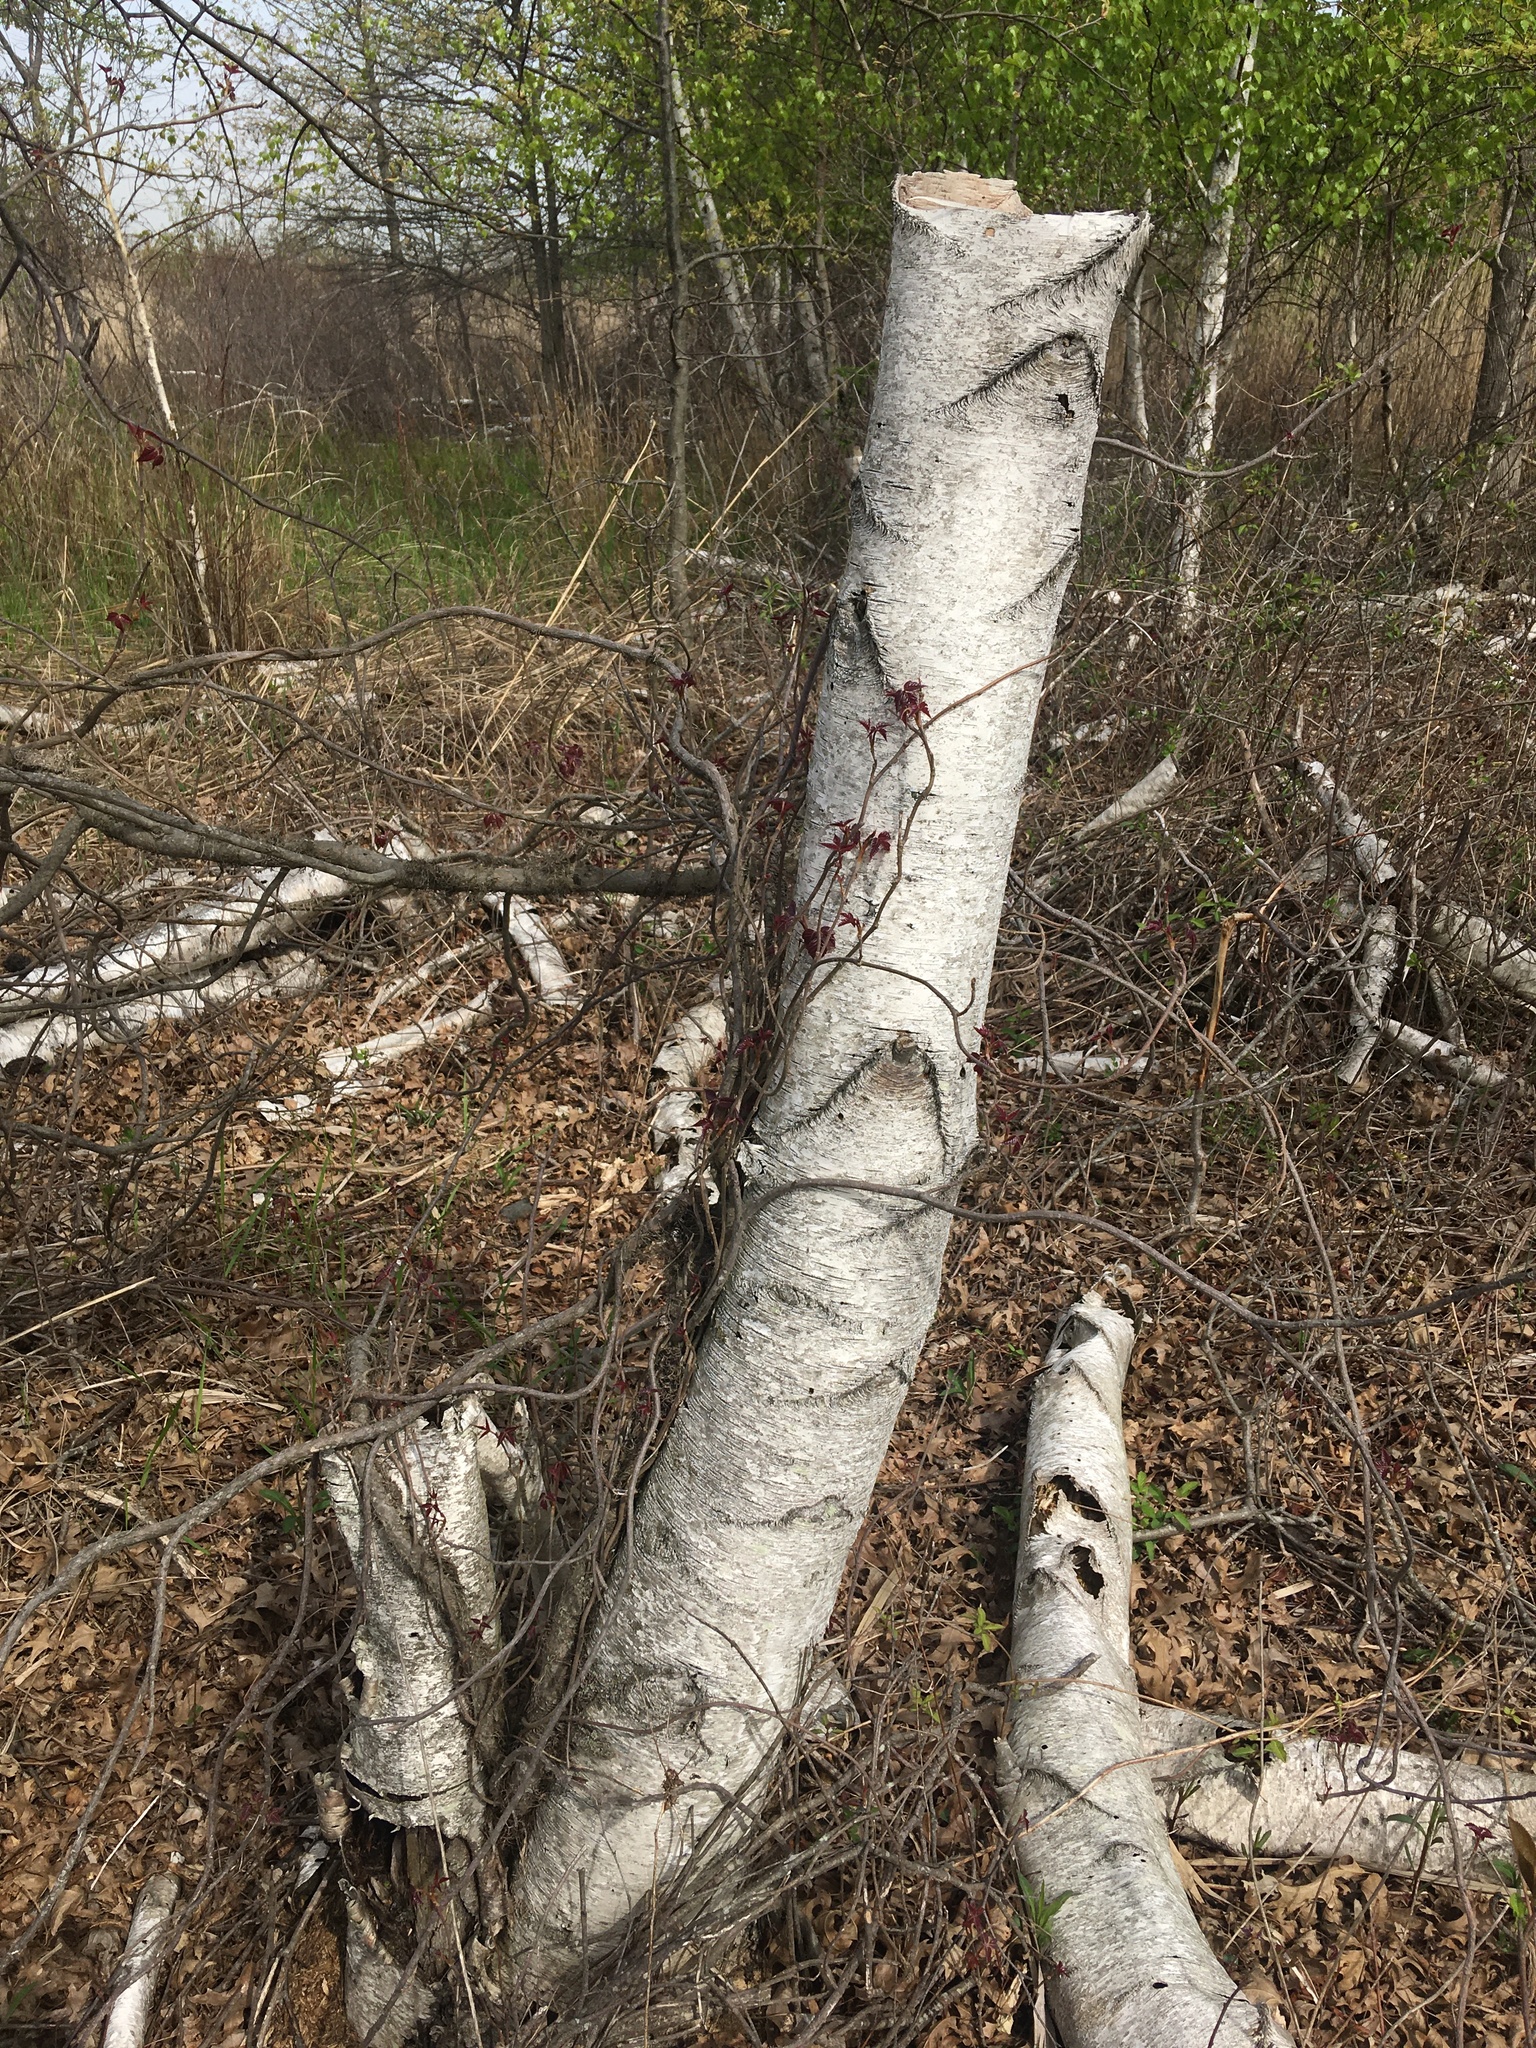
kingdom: Plantae
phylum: Tracheophyta
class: Magnoliopsida
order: Fagales
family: Betulaceae
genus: Betula
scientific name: Betula populifolia
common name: Fire birch
